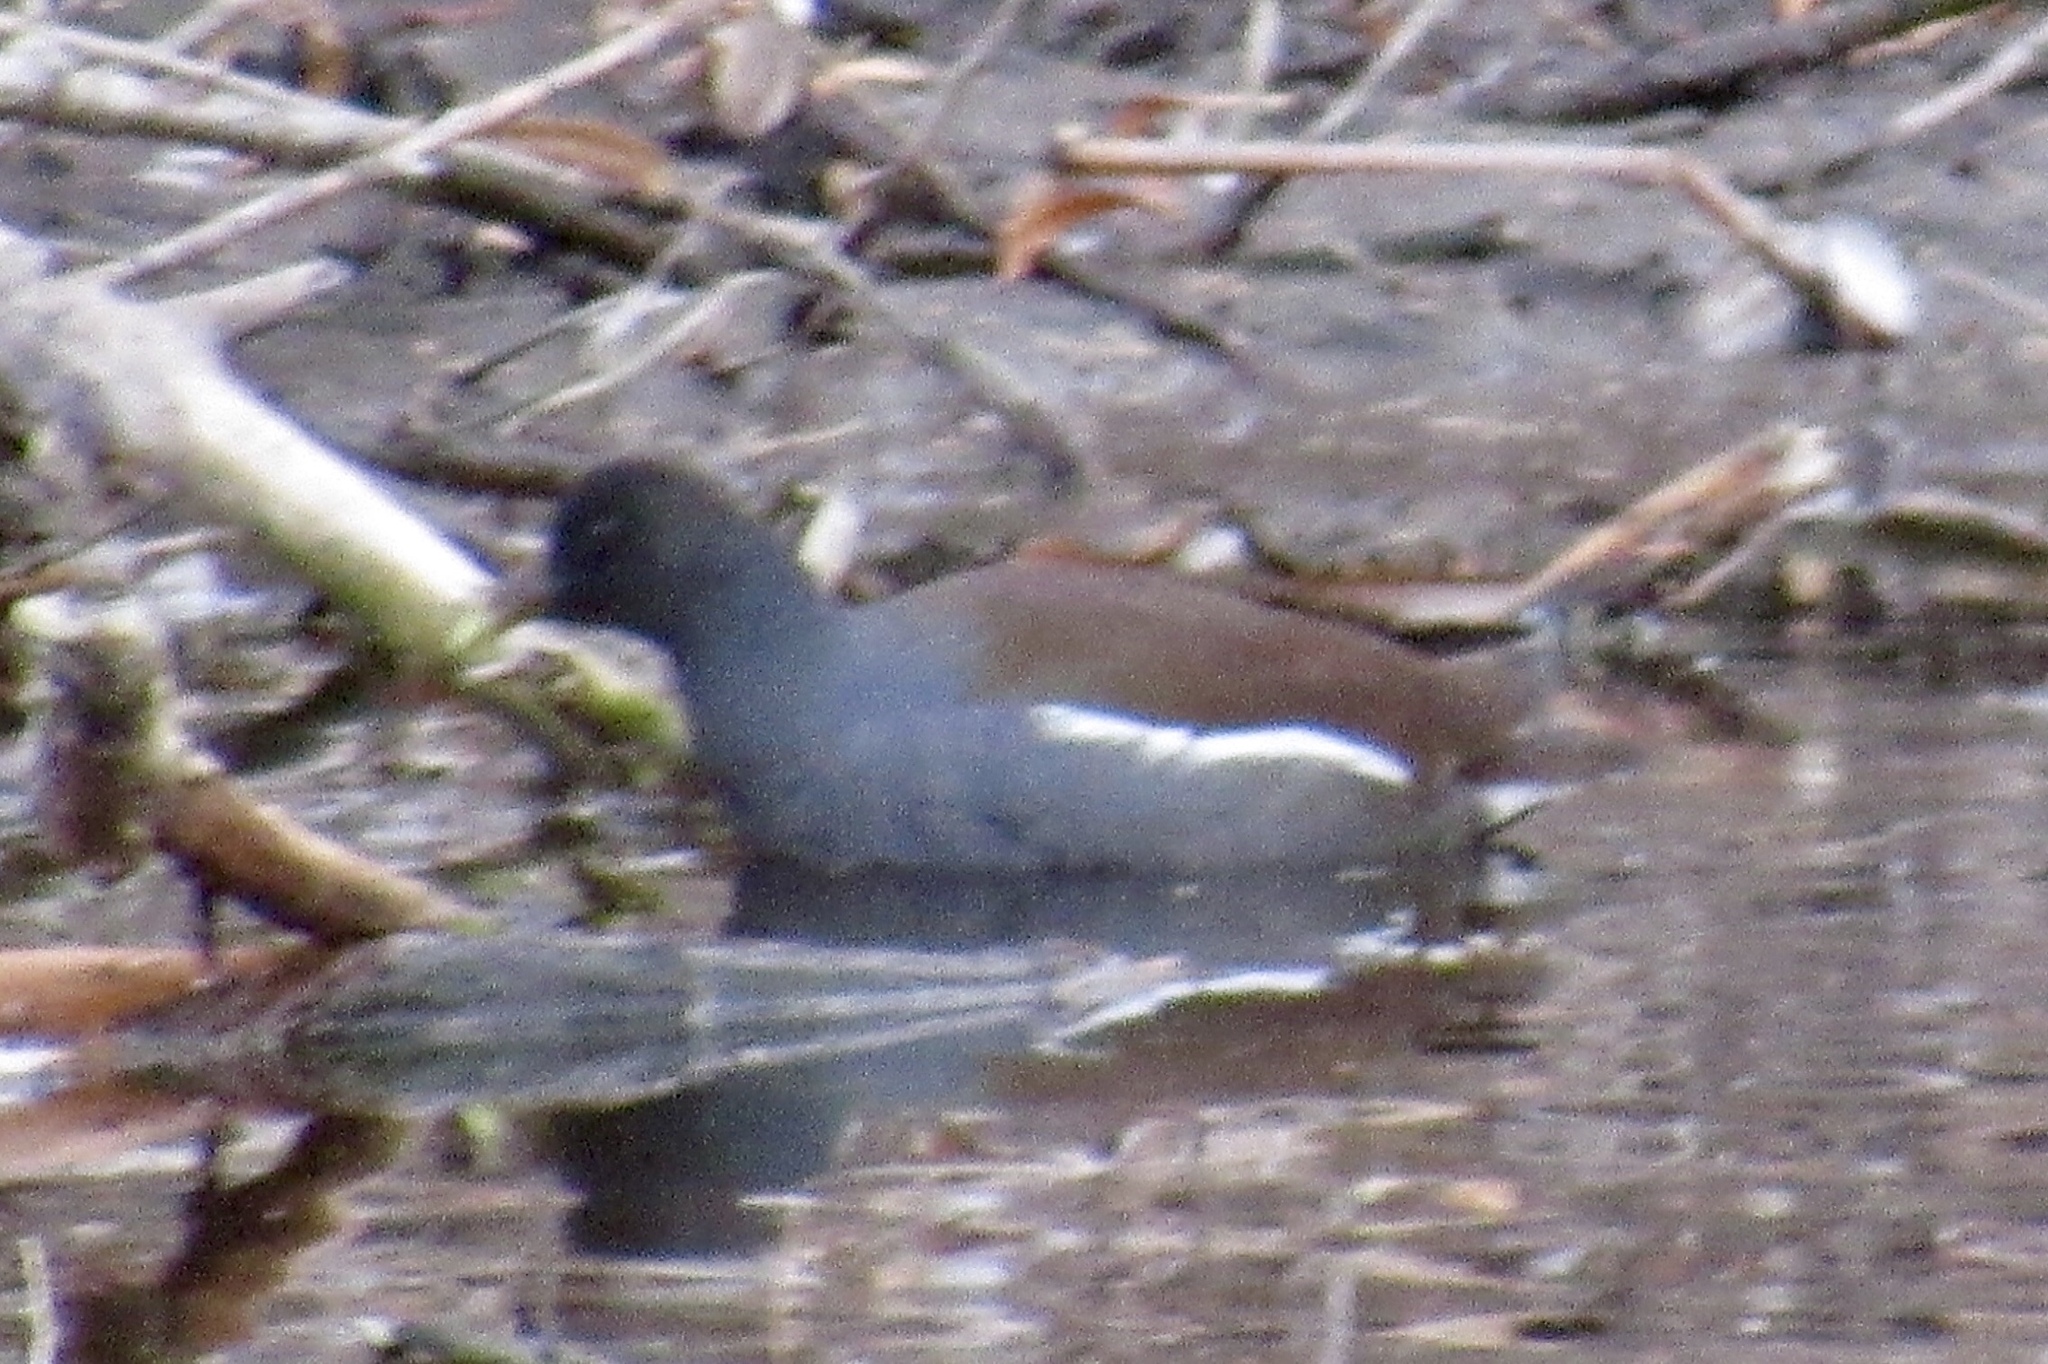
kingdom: Animalia
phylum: Chordata
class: Aves
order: Gruiformes
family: Rallidae
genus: Gallinula
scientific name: Gallinula chloropus
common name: Common moorhen
